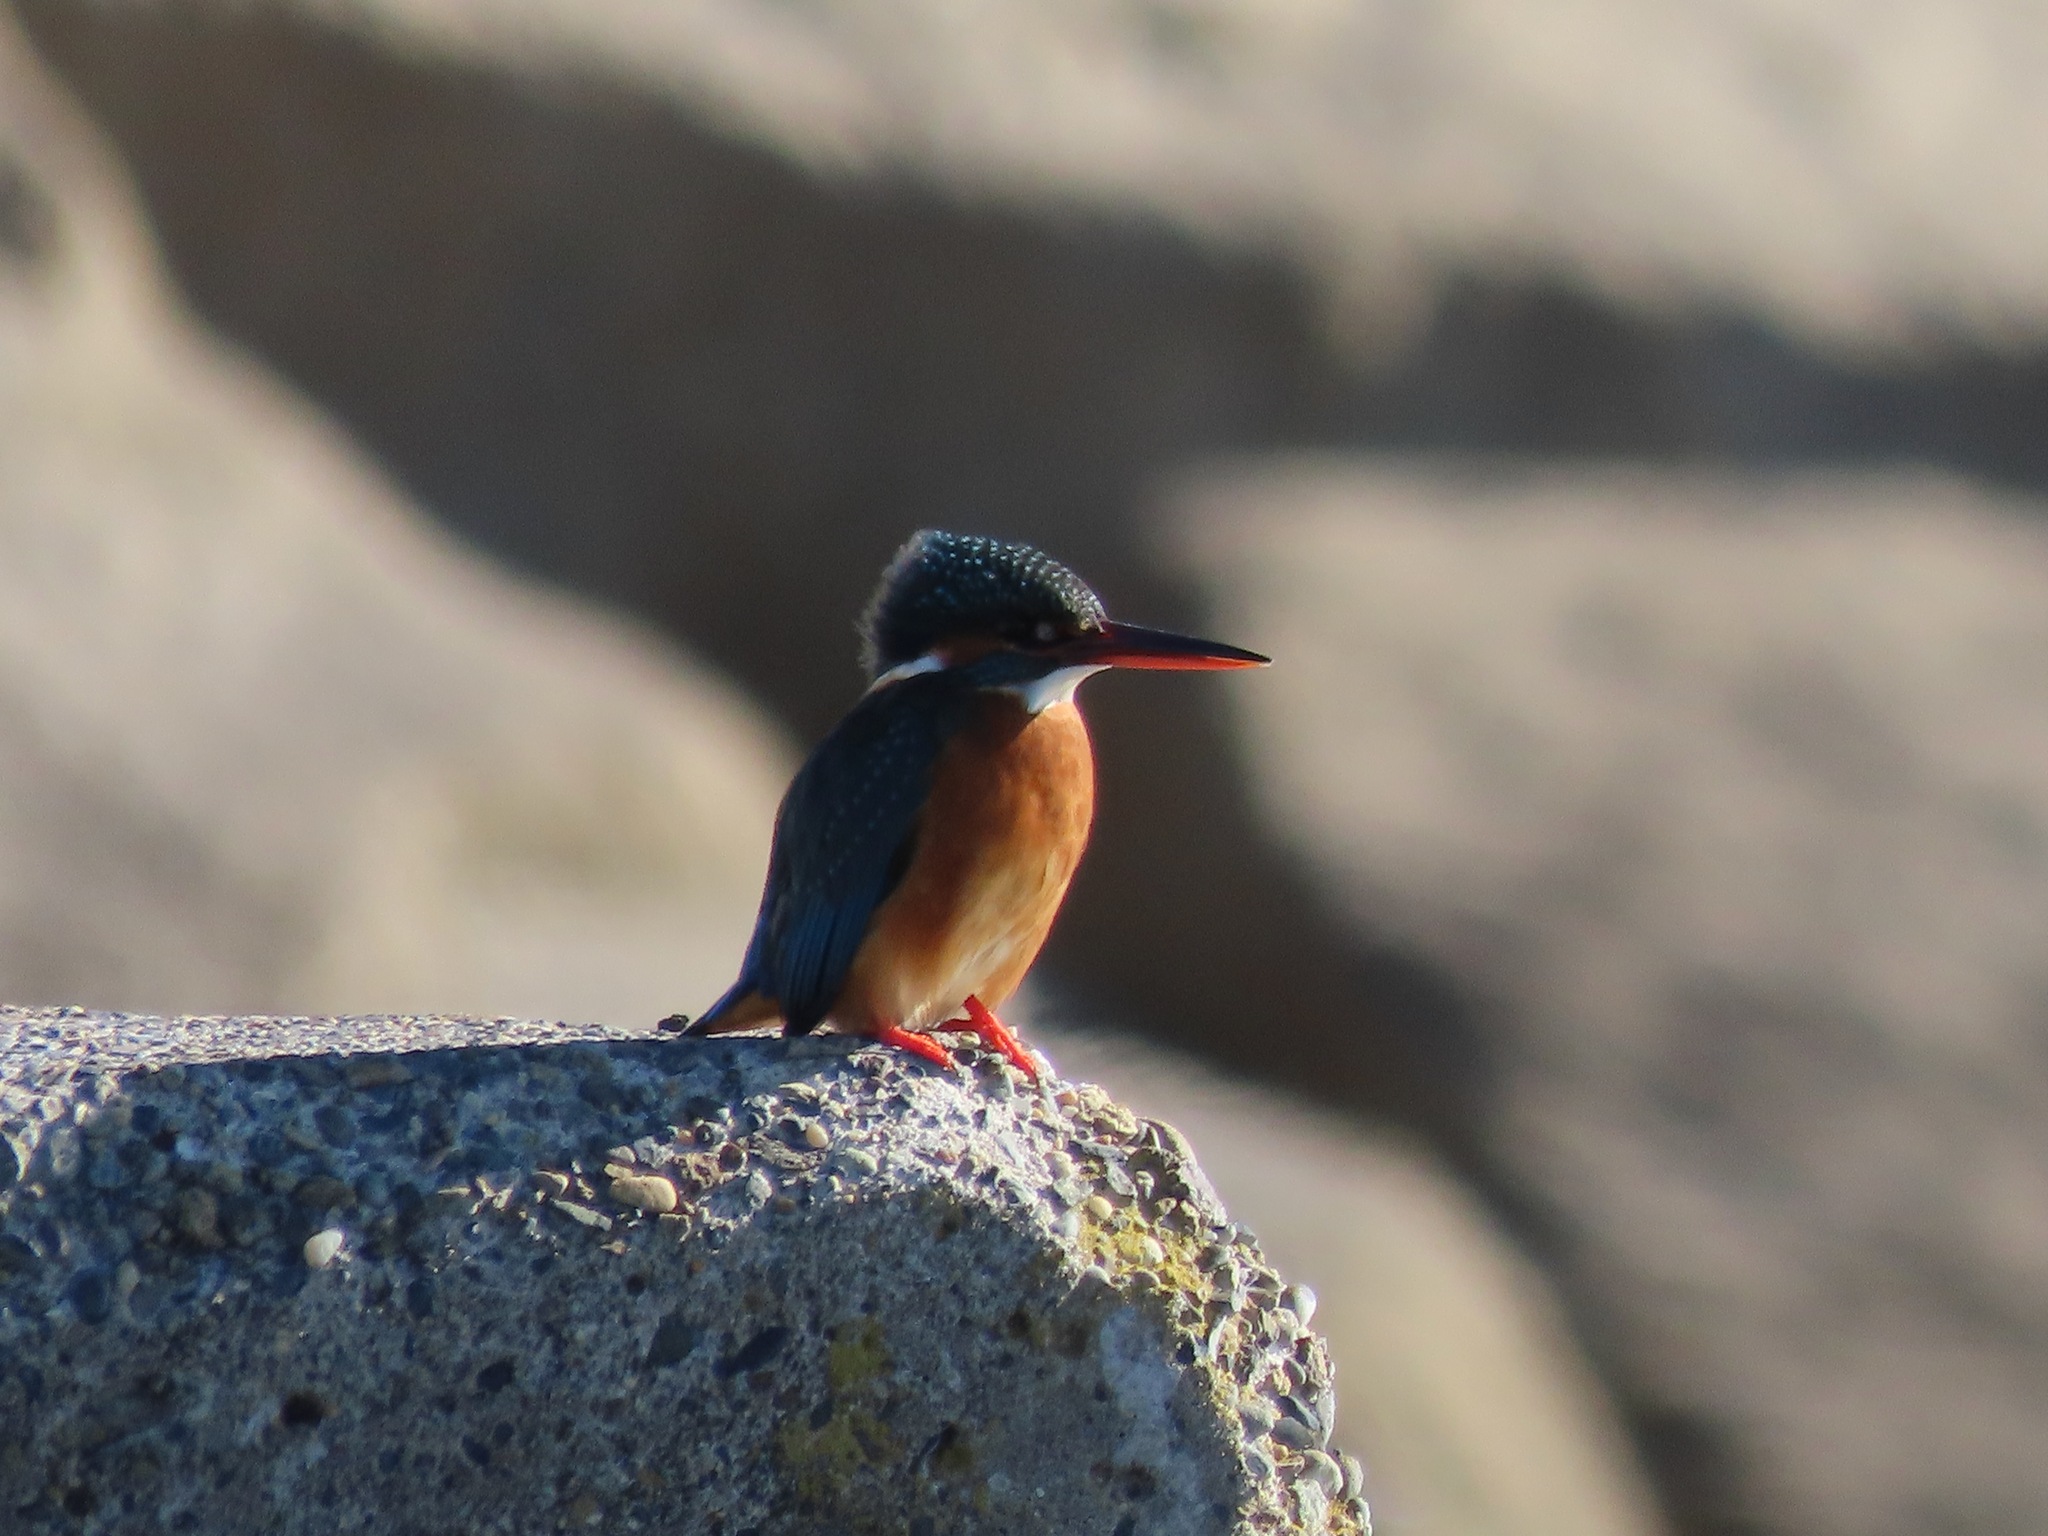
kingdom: Animalia
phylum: Chordata
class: Aves
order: Coraciiformes
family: Alcedinidae
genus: Alcedo
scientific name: Alcedo atthis
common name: Common kingfisher
